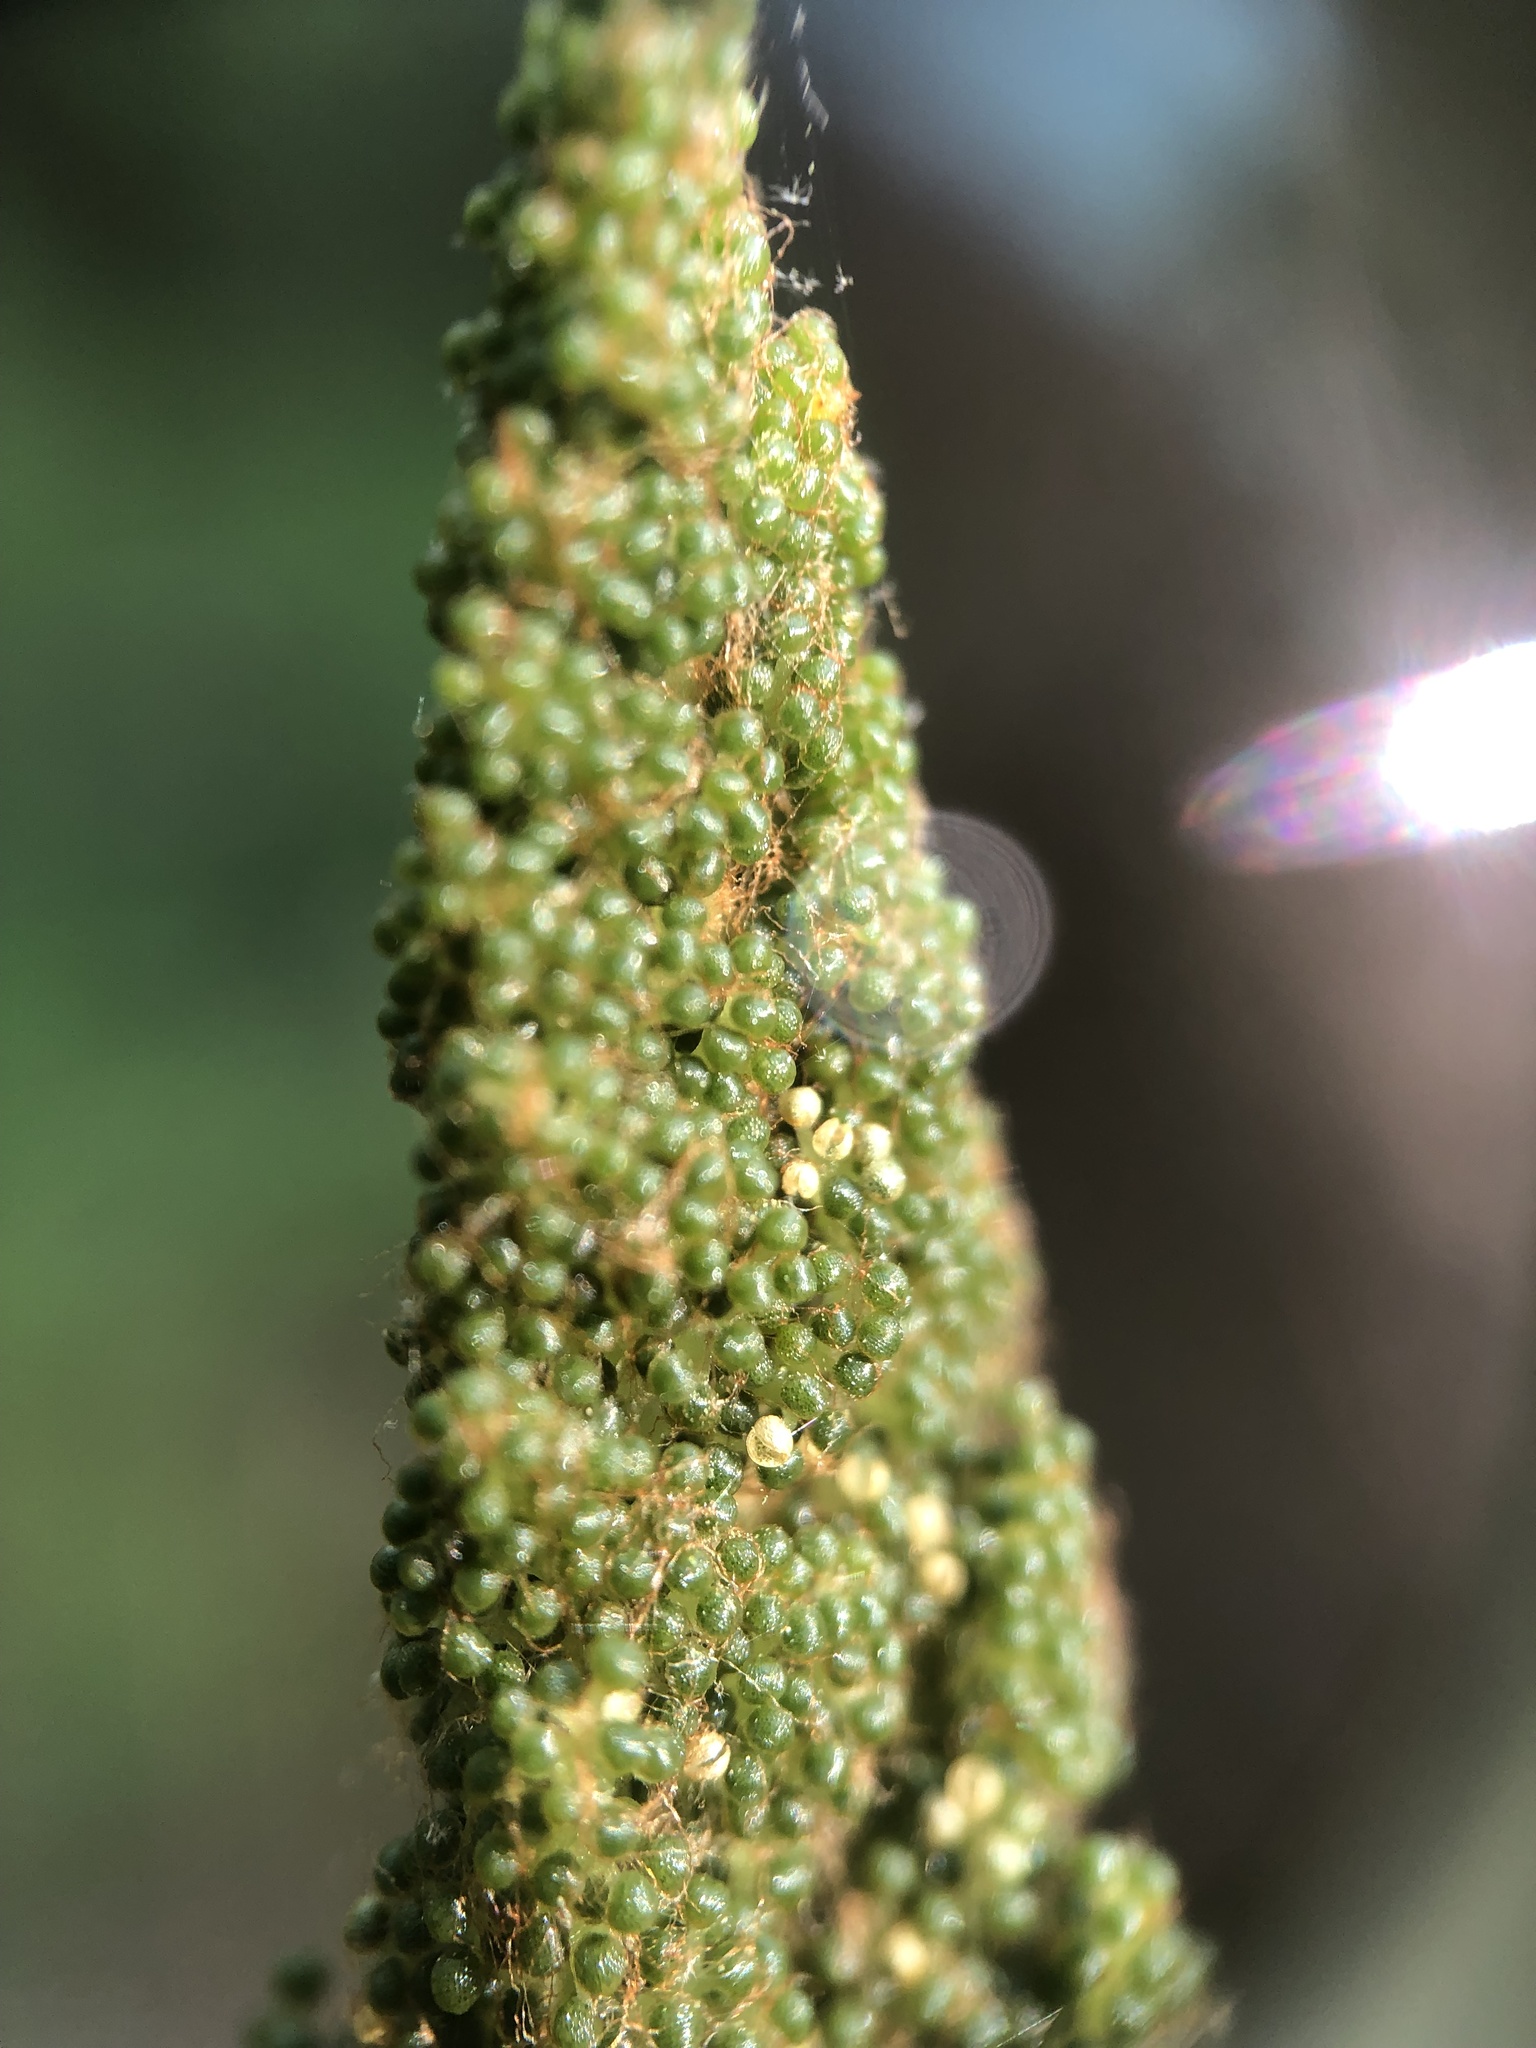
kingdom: Plantae
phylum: Tracheophyta
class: Polypodiopsida
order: Osmundales
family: Osmundaceae
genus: Osmundastrum
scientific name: Osmundastrum cinnamomeum
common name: Cinnamon fern
